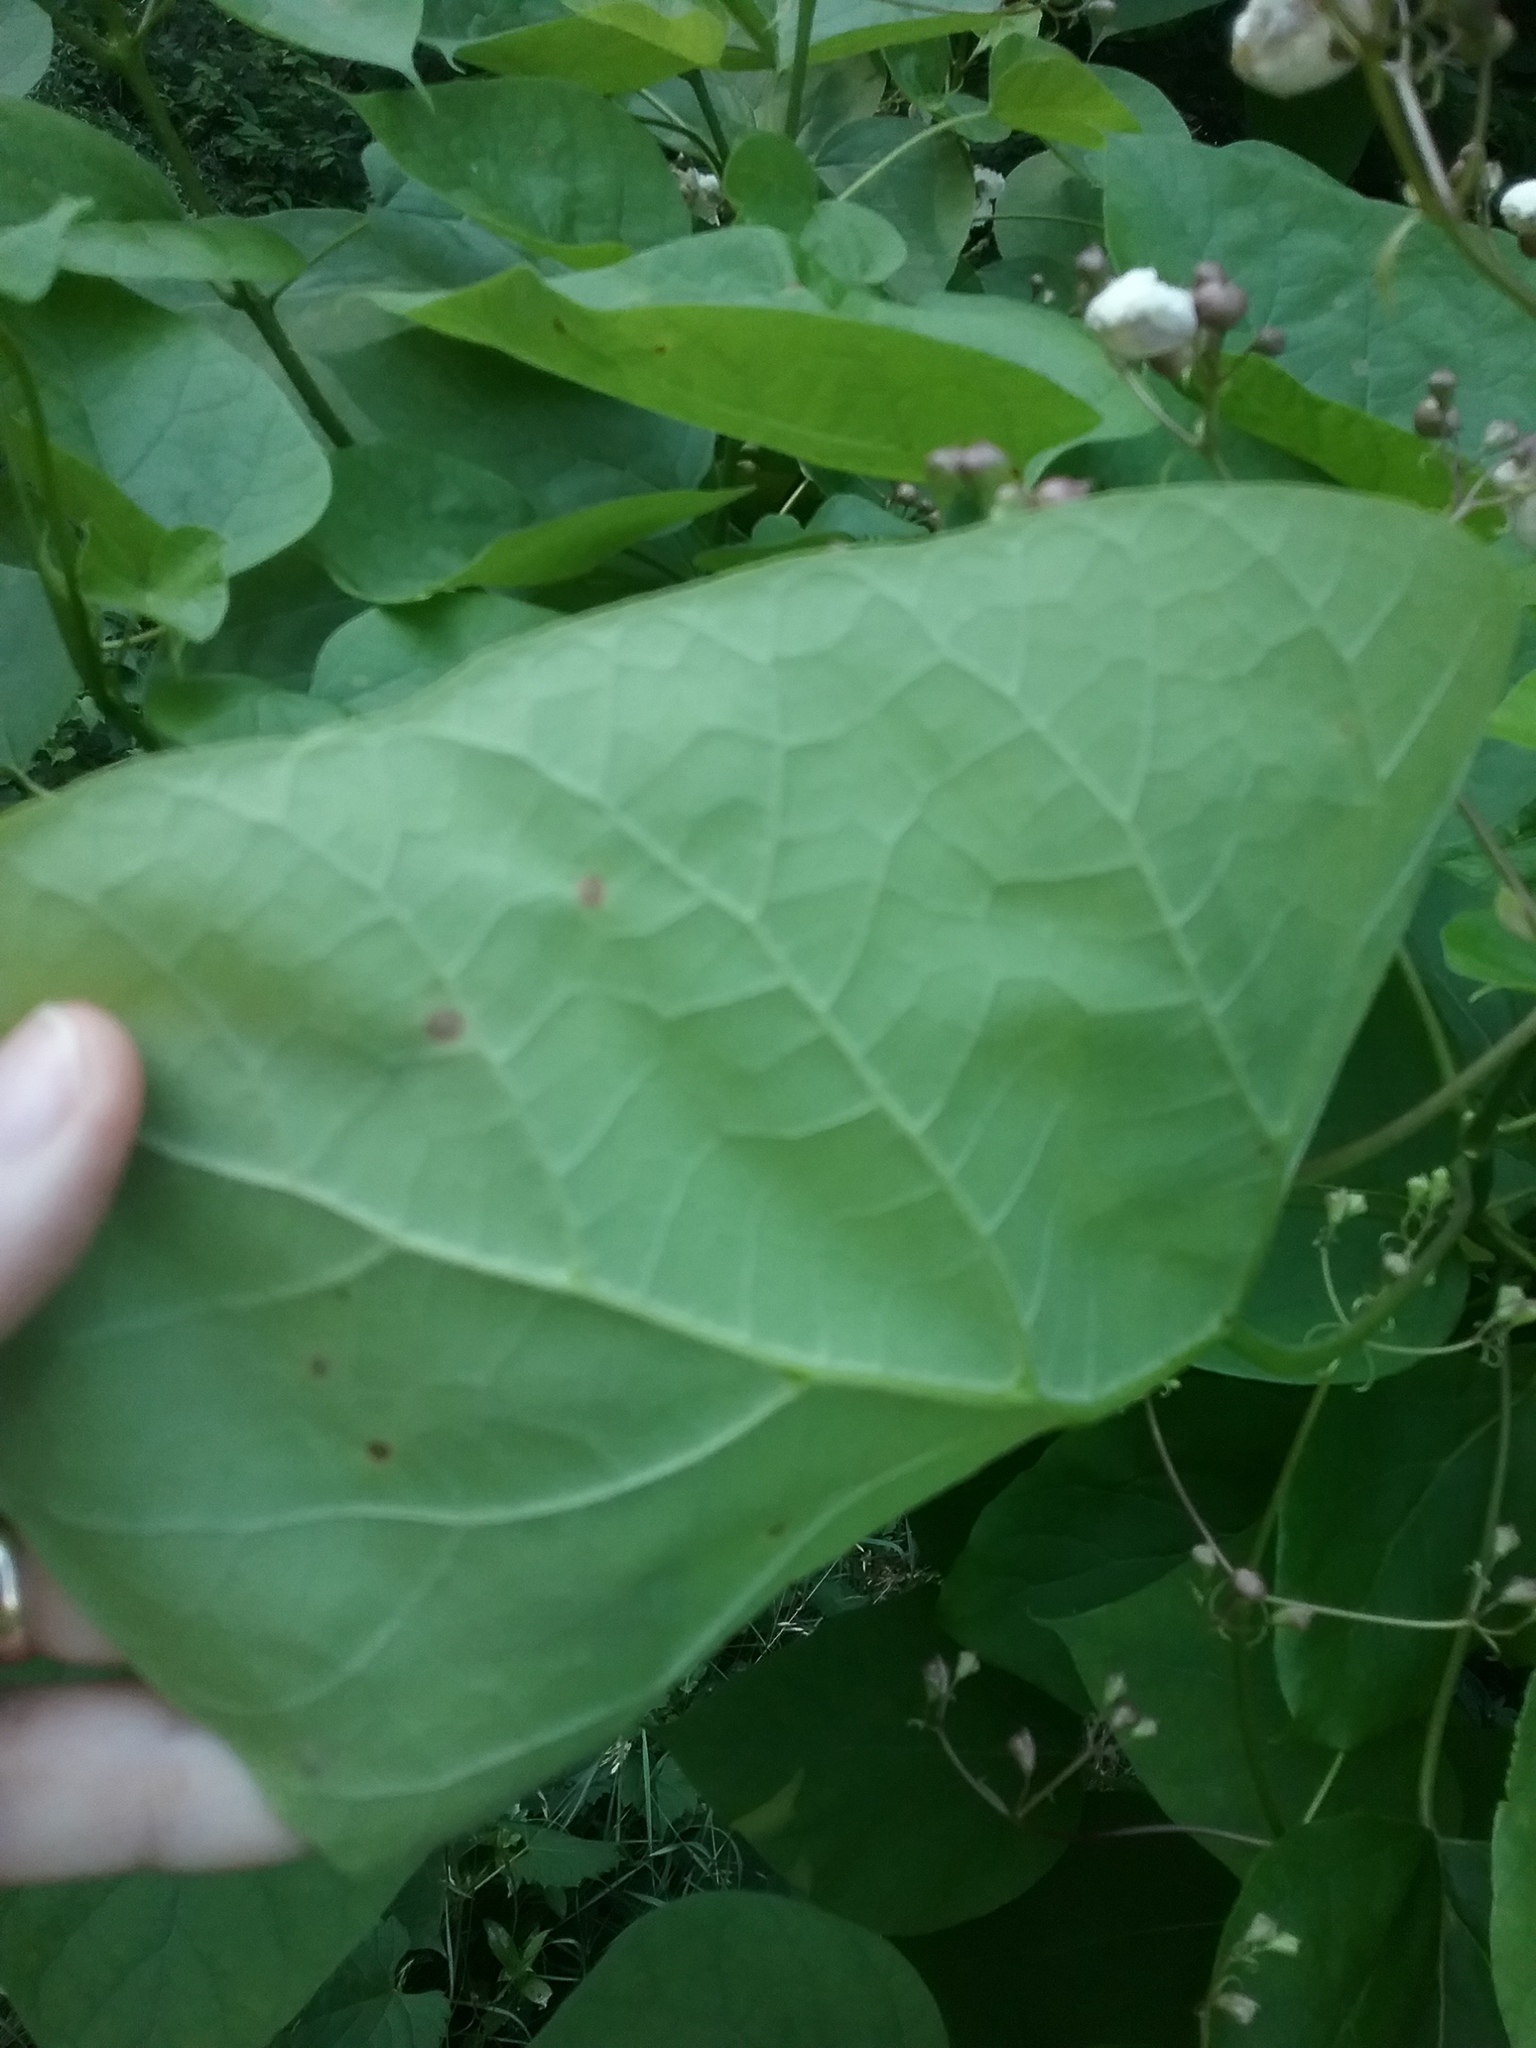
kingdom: Plantae
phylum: Tracheophyta
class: Magnoliopsida
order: Lamiales
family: Bignoniaceae
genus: Catalpa
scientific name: Catalpa bignonioides
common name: Southern catalpa
